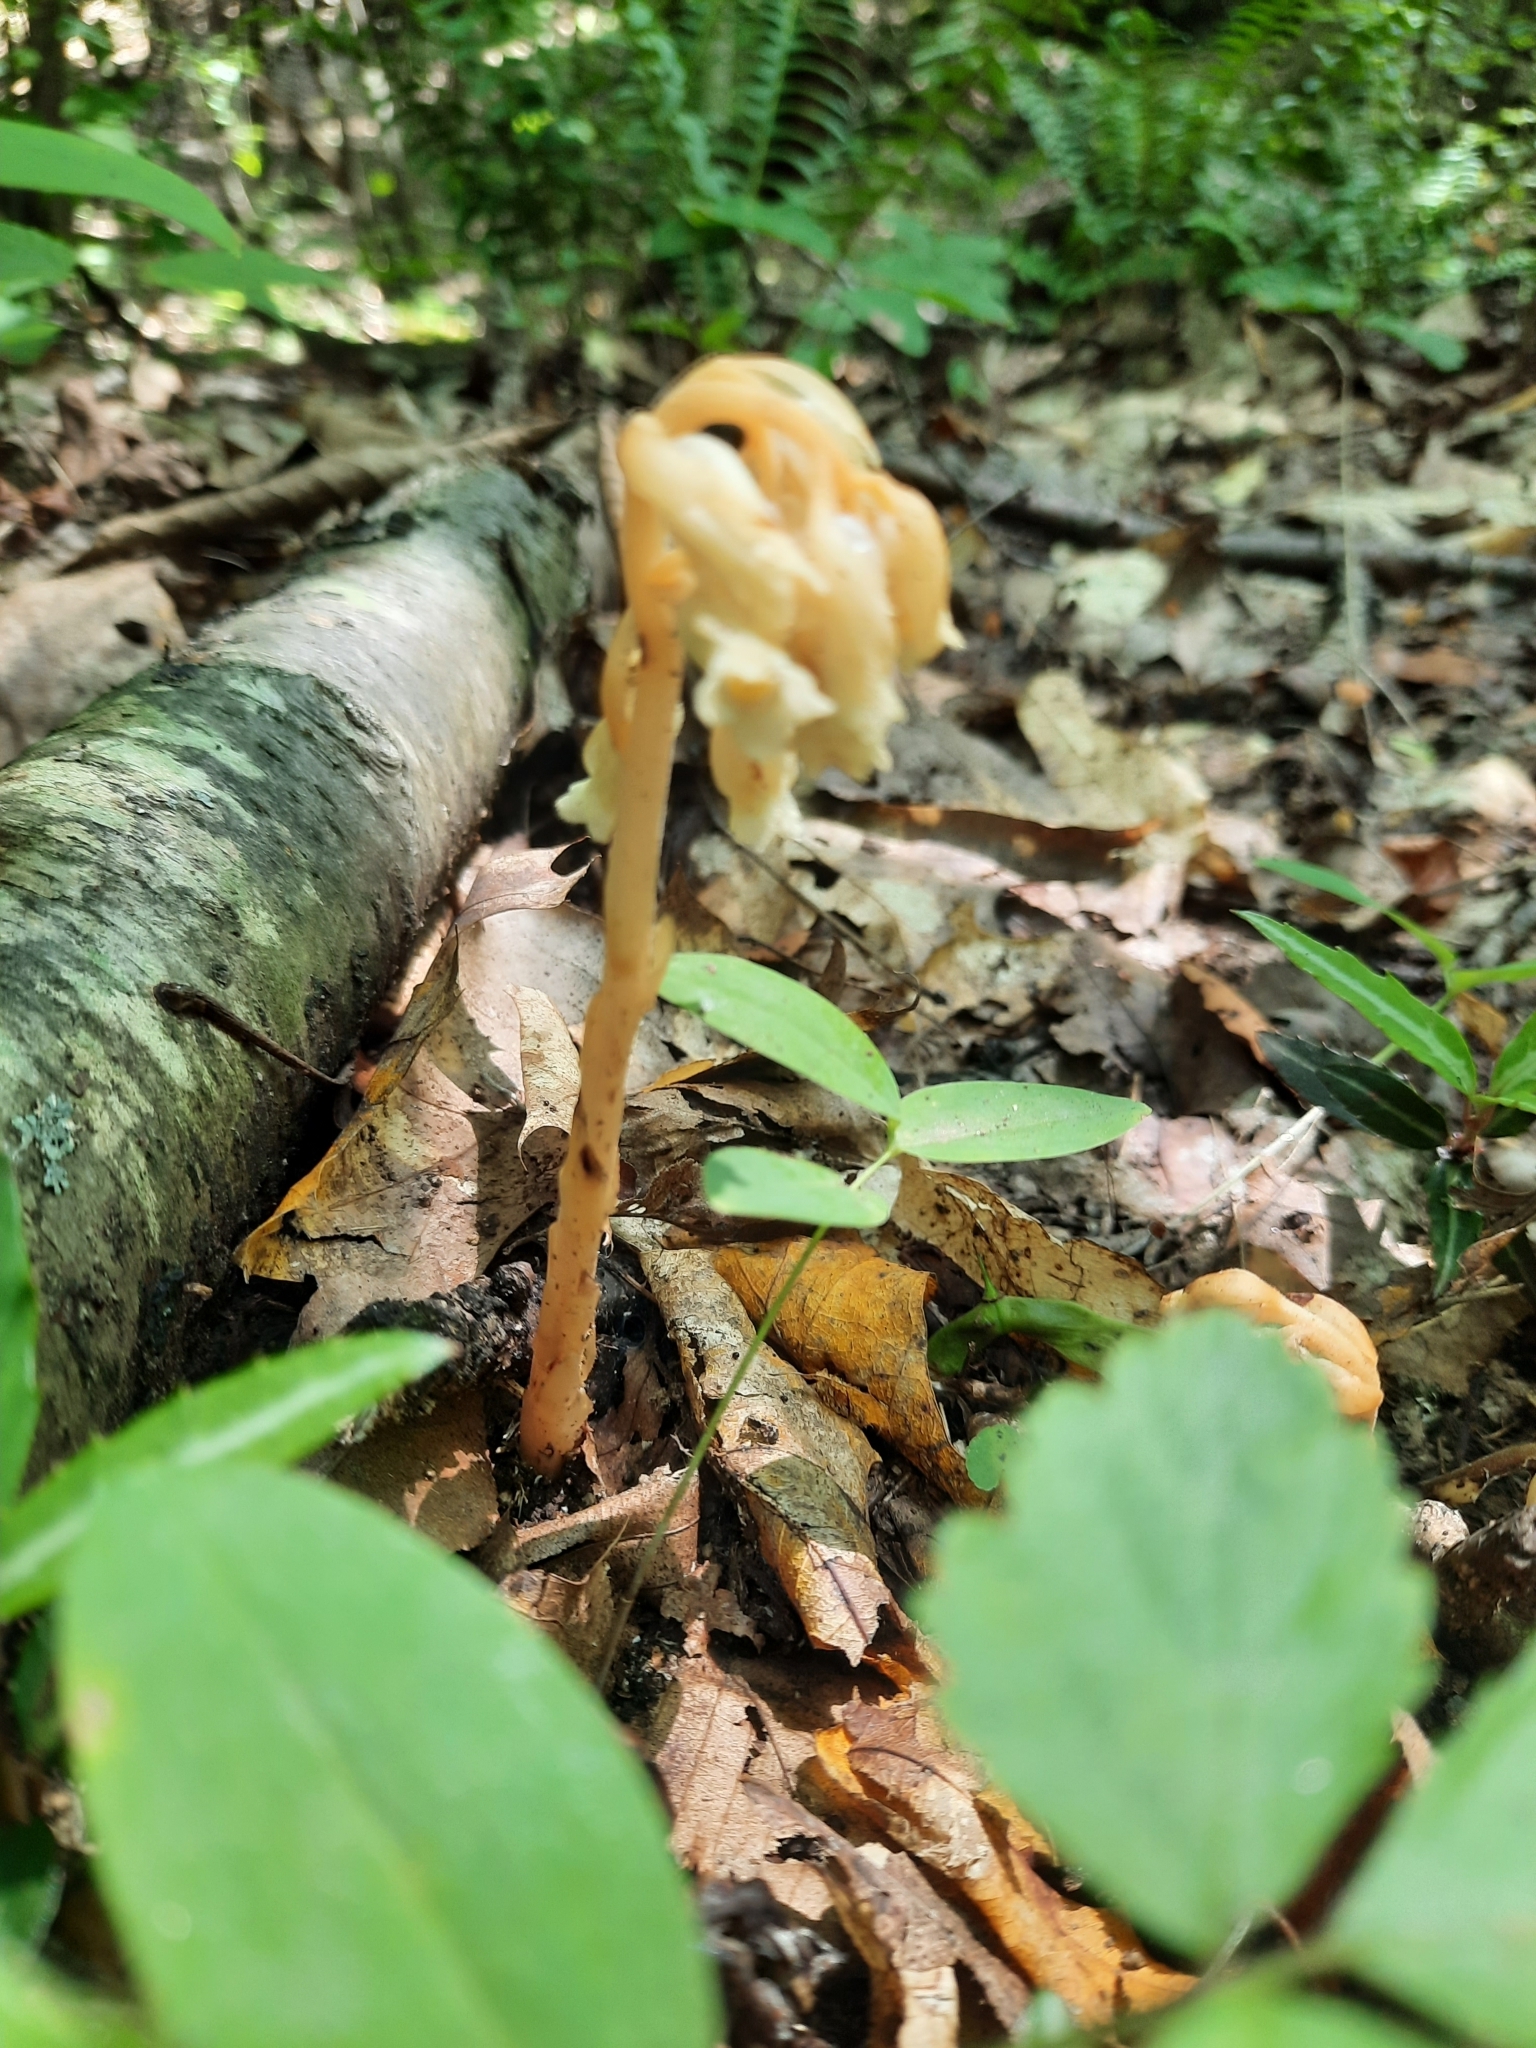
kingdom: Plantae
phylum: Tracheophyta
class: Magnoliopsida
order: Ericales
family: Ericaceae
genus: Hypopitys
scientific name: Hypopitys monotropa
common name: Yellow bird's-nest
